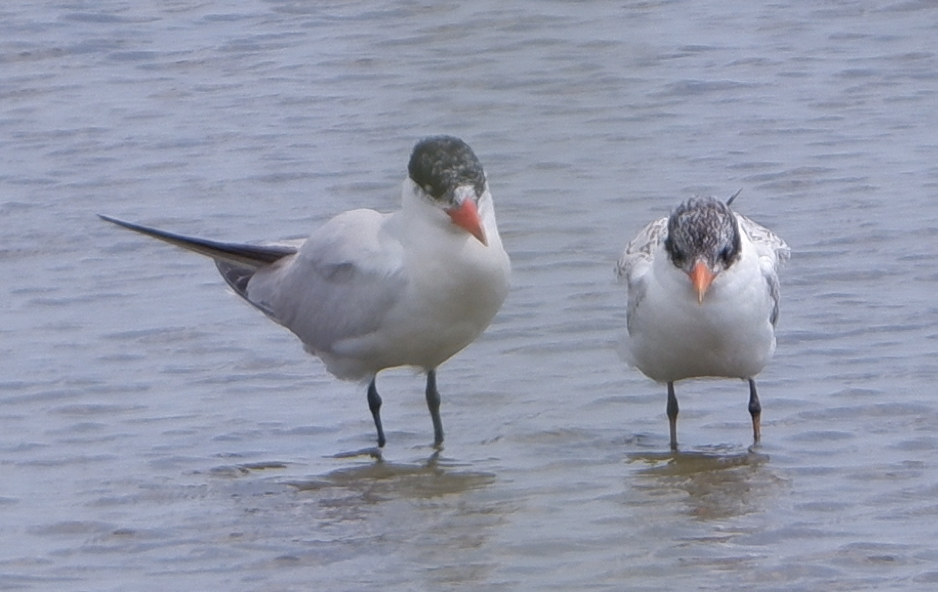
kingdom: Animalia
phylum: Chordata
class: Aves
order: Charadriiformes
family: Laridae
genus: Hydroprogne
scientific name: Hydroprogne caspia
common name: Caspian tern
